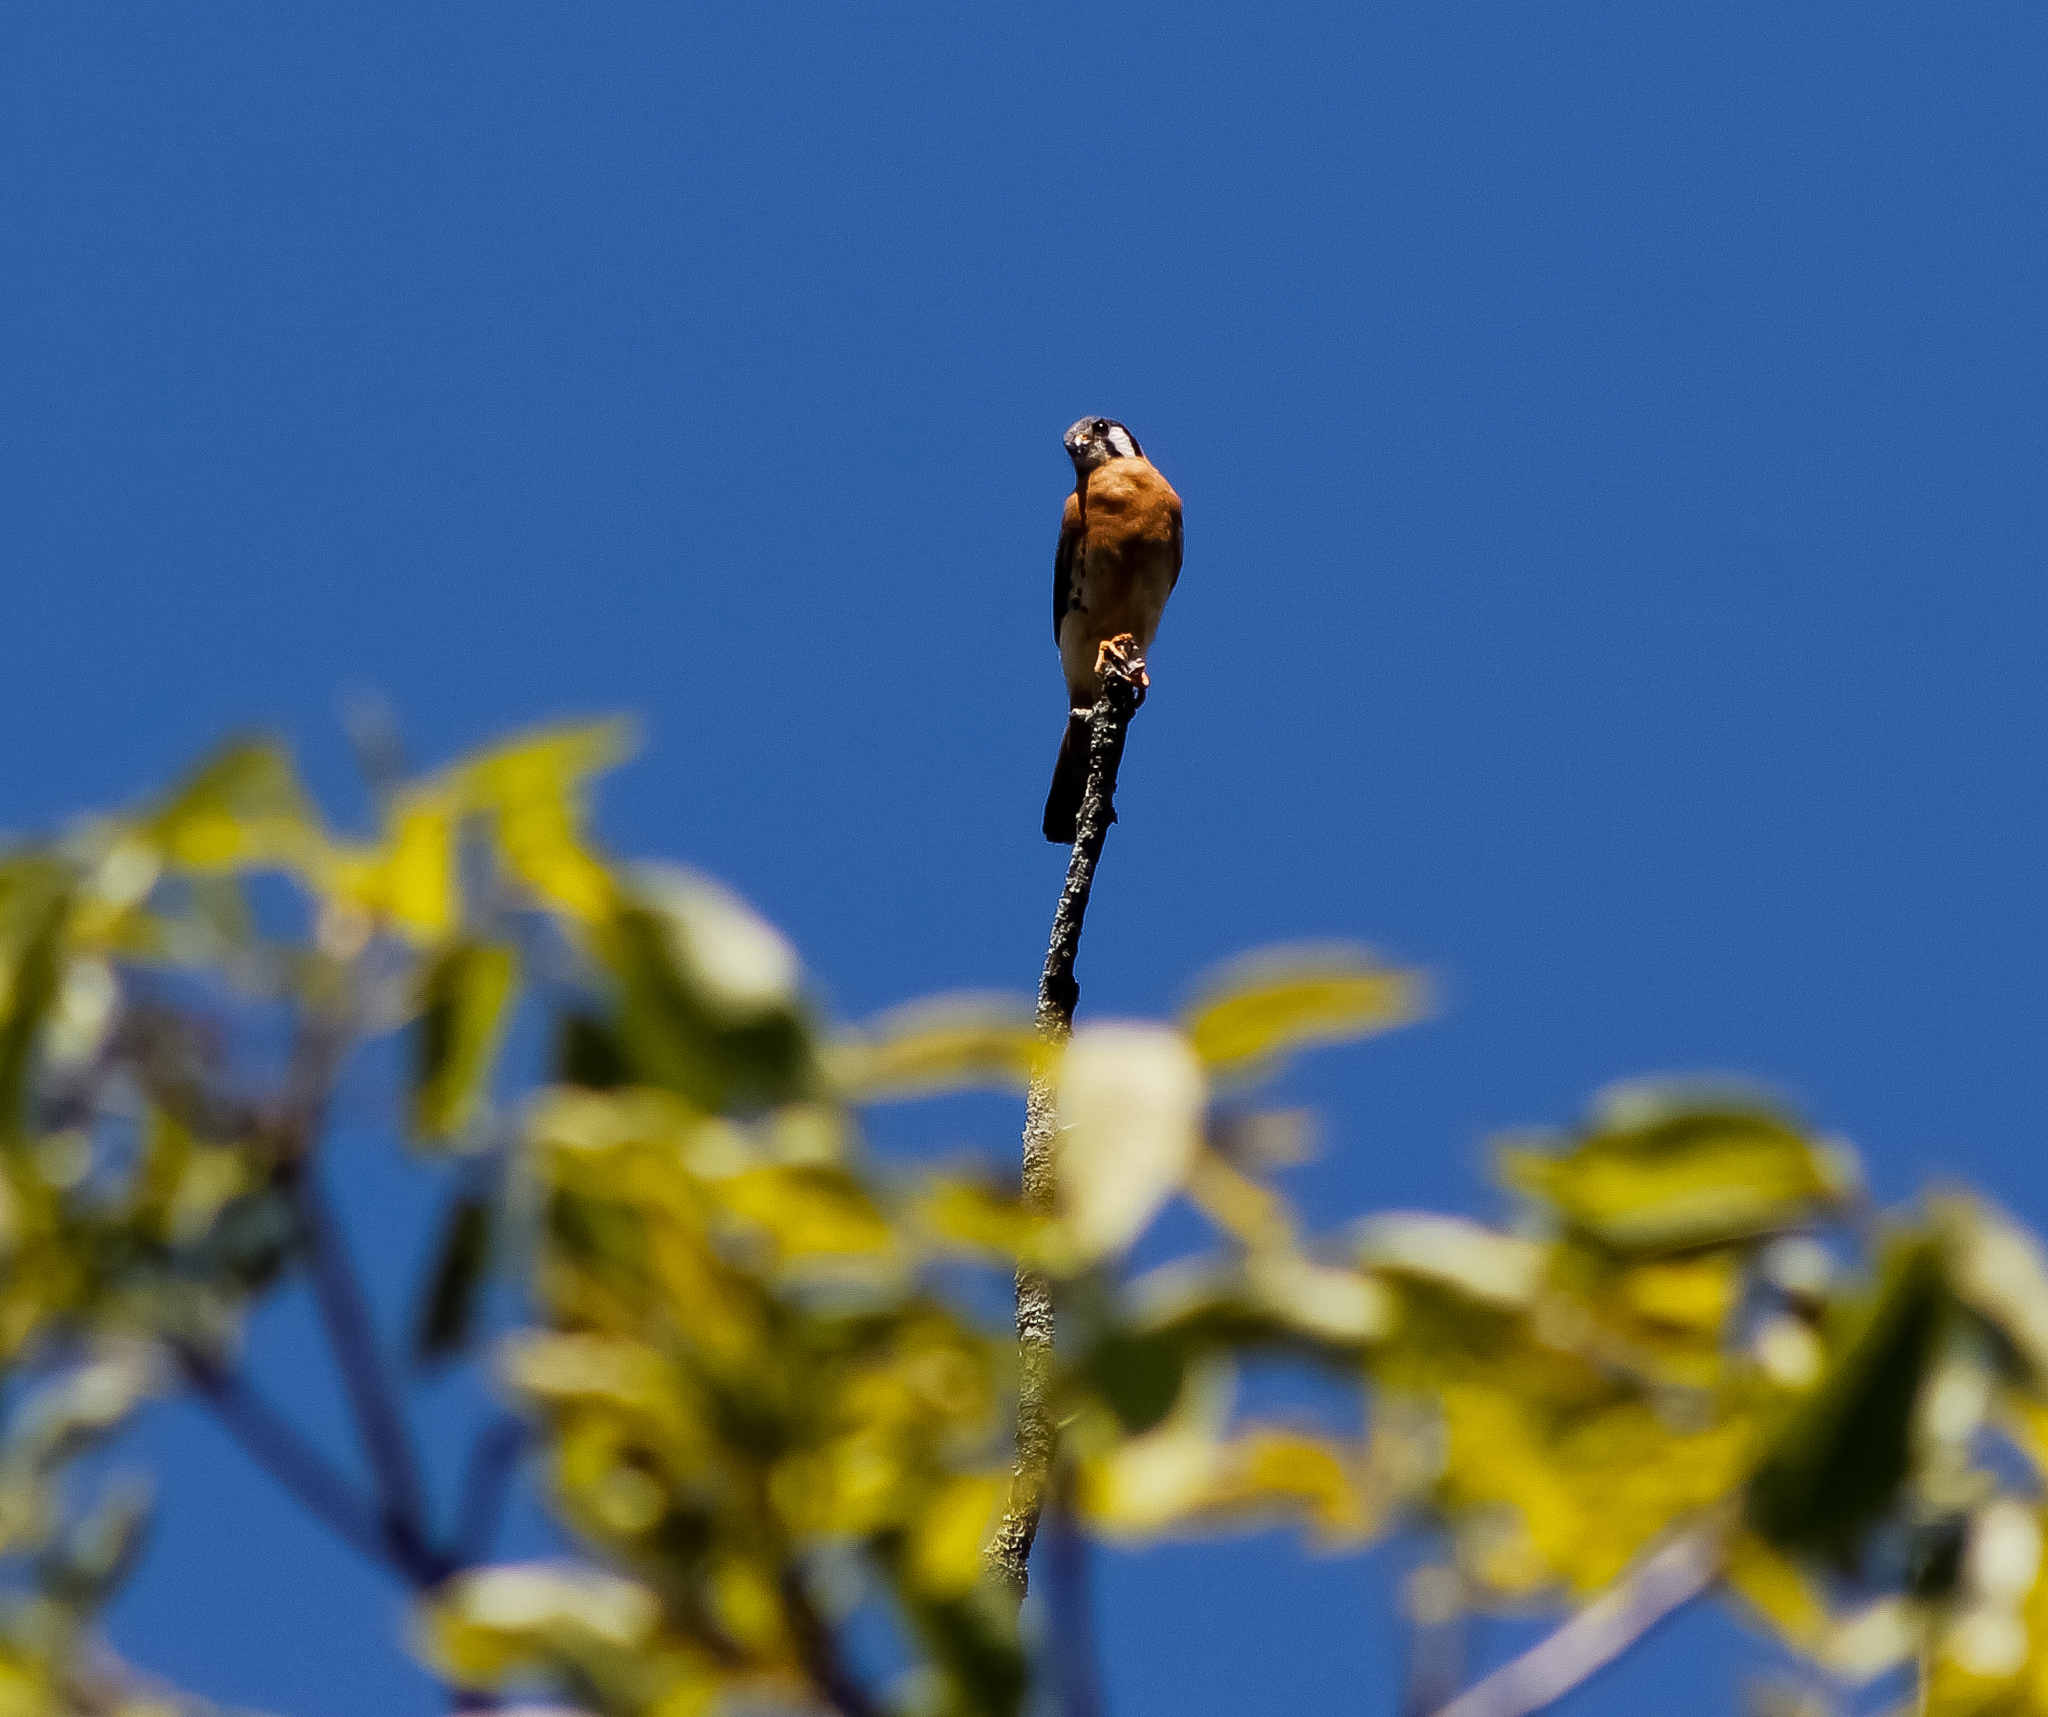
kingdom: Animalia
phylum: Chordata
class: Aves
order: Falconiformes
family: Falconidae
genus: Falco
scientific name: Falco sparverius
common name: American kestrel
